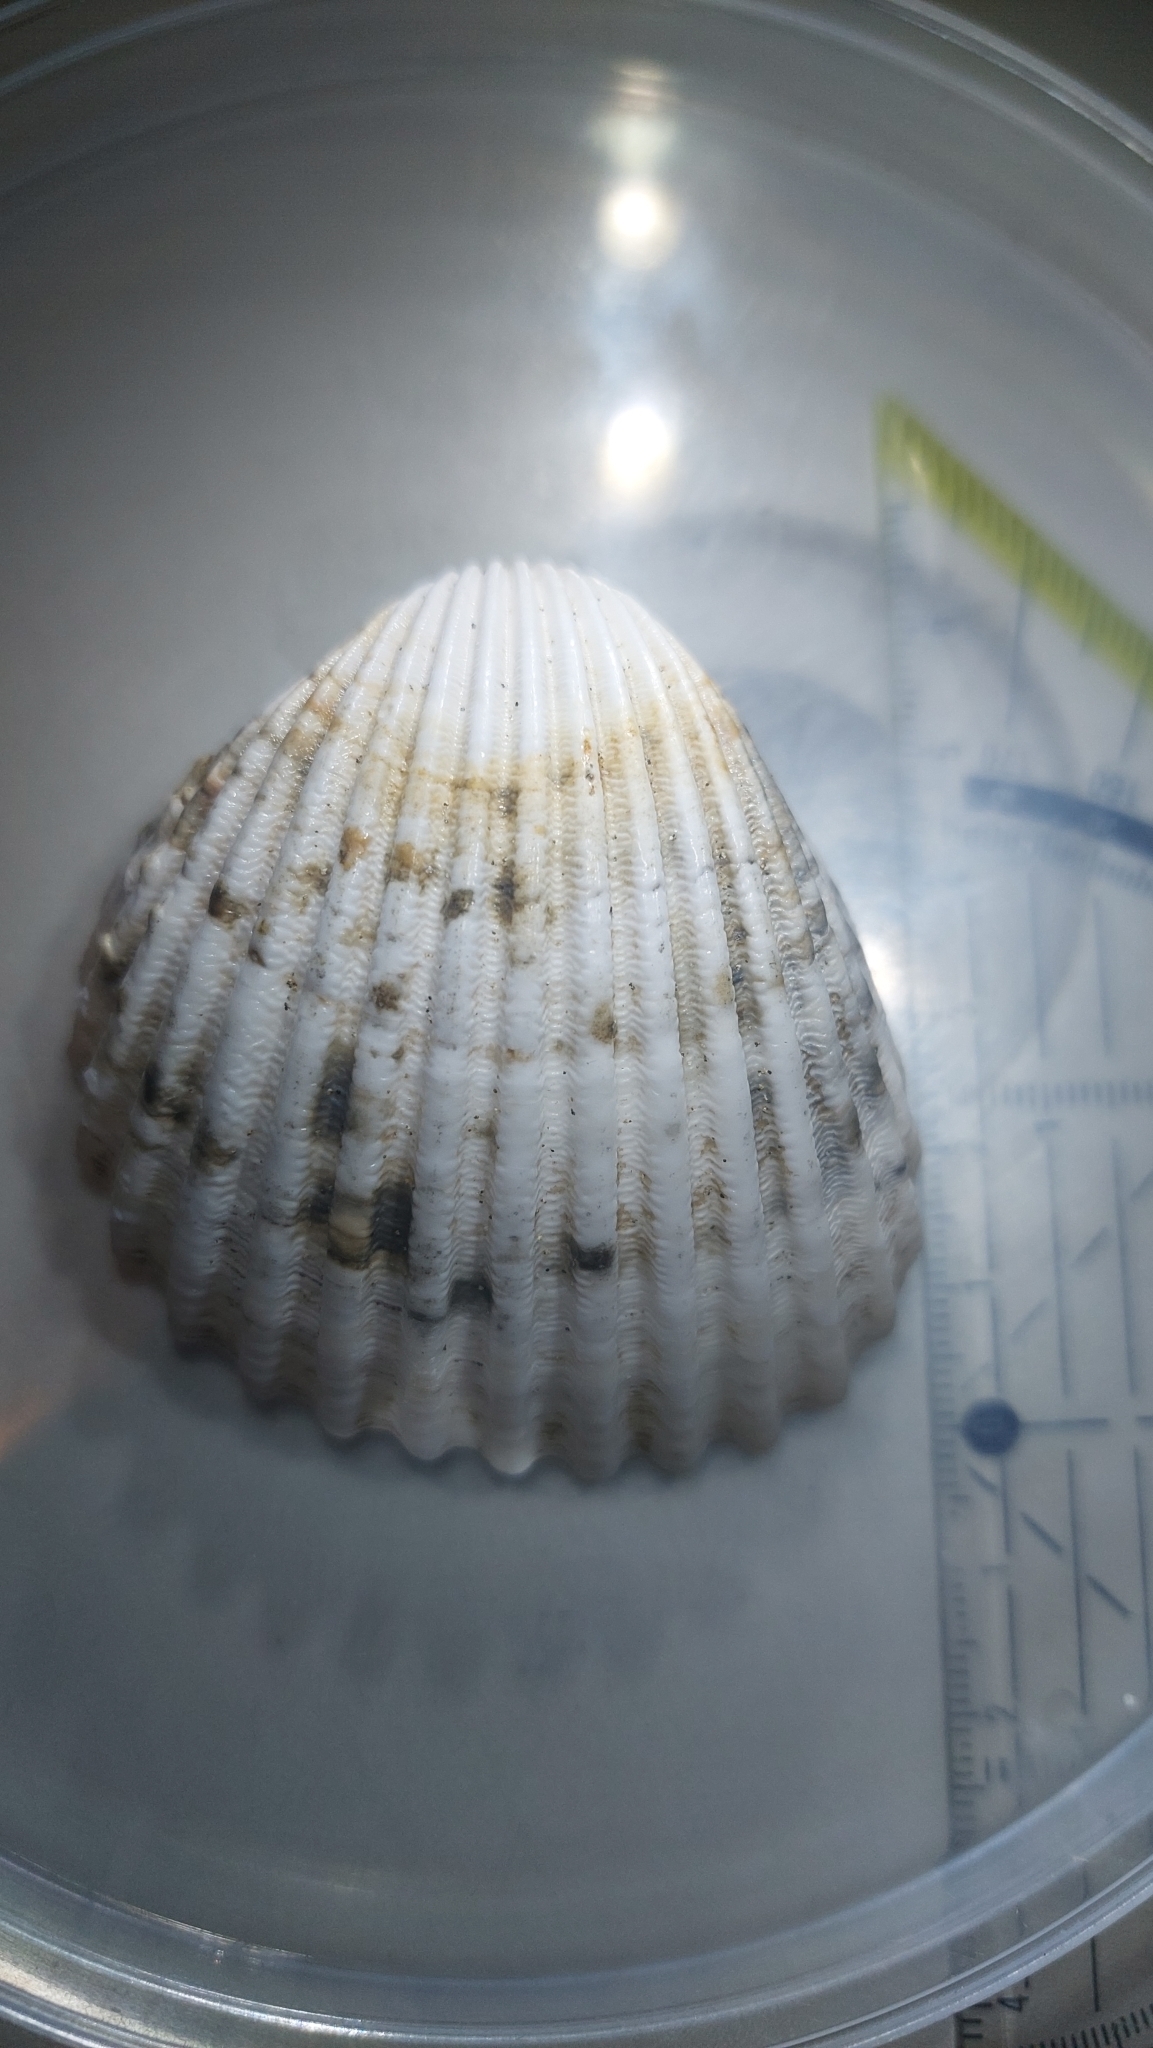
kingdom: Animalia
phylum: Mollusca
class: Bivalvia
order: Cardiida
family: Cardiidae
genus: Acanthocardia
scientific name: Acanthocardia tuberculata
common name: Rough cockle
